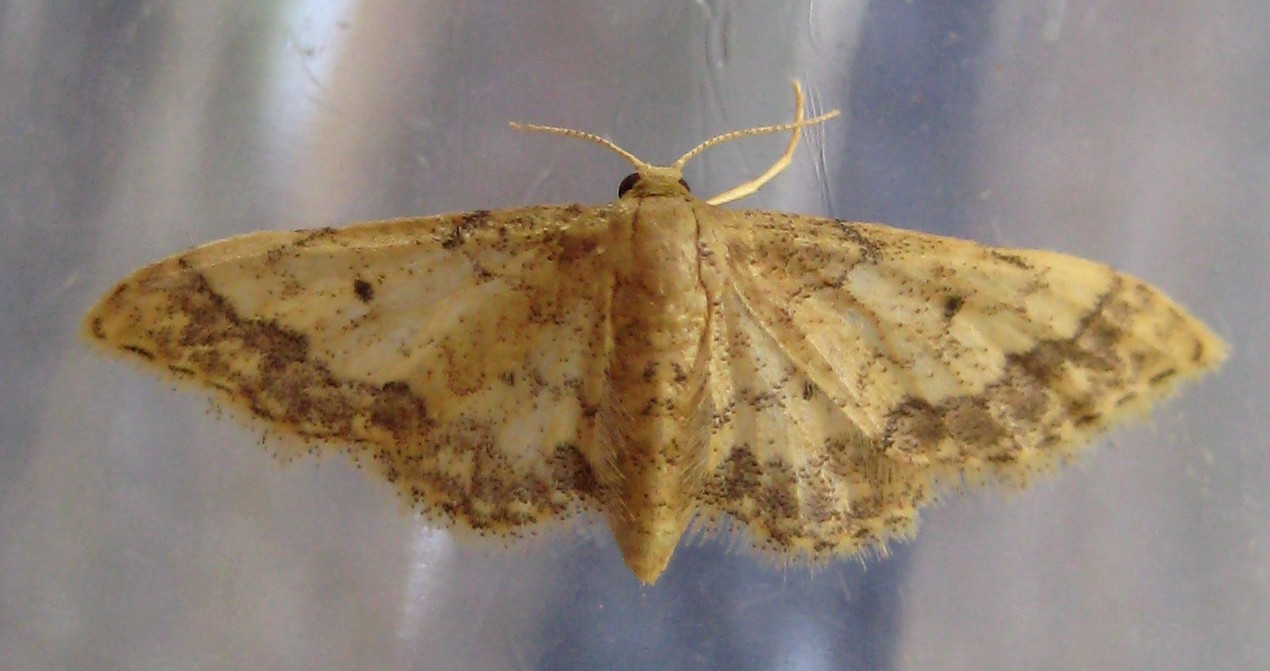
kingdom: Animalia
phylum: Arthropoda
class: Insecta
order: Lepidoptera
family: Geometridae
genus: Idaea
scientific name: Idaea celtima
